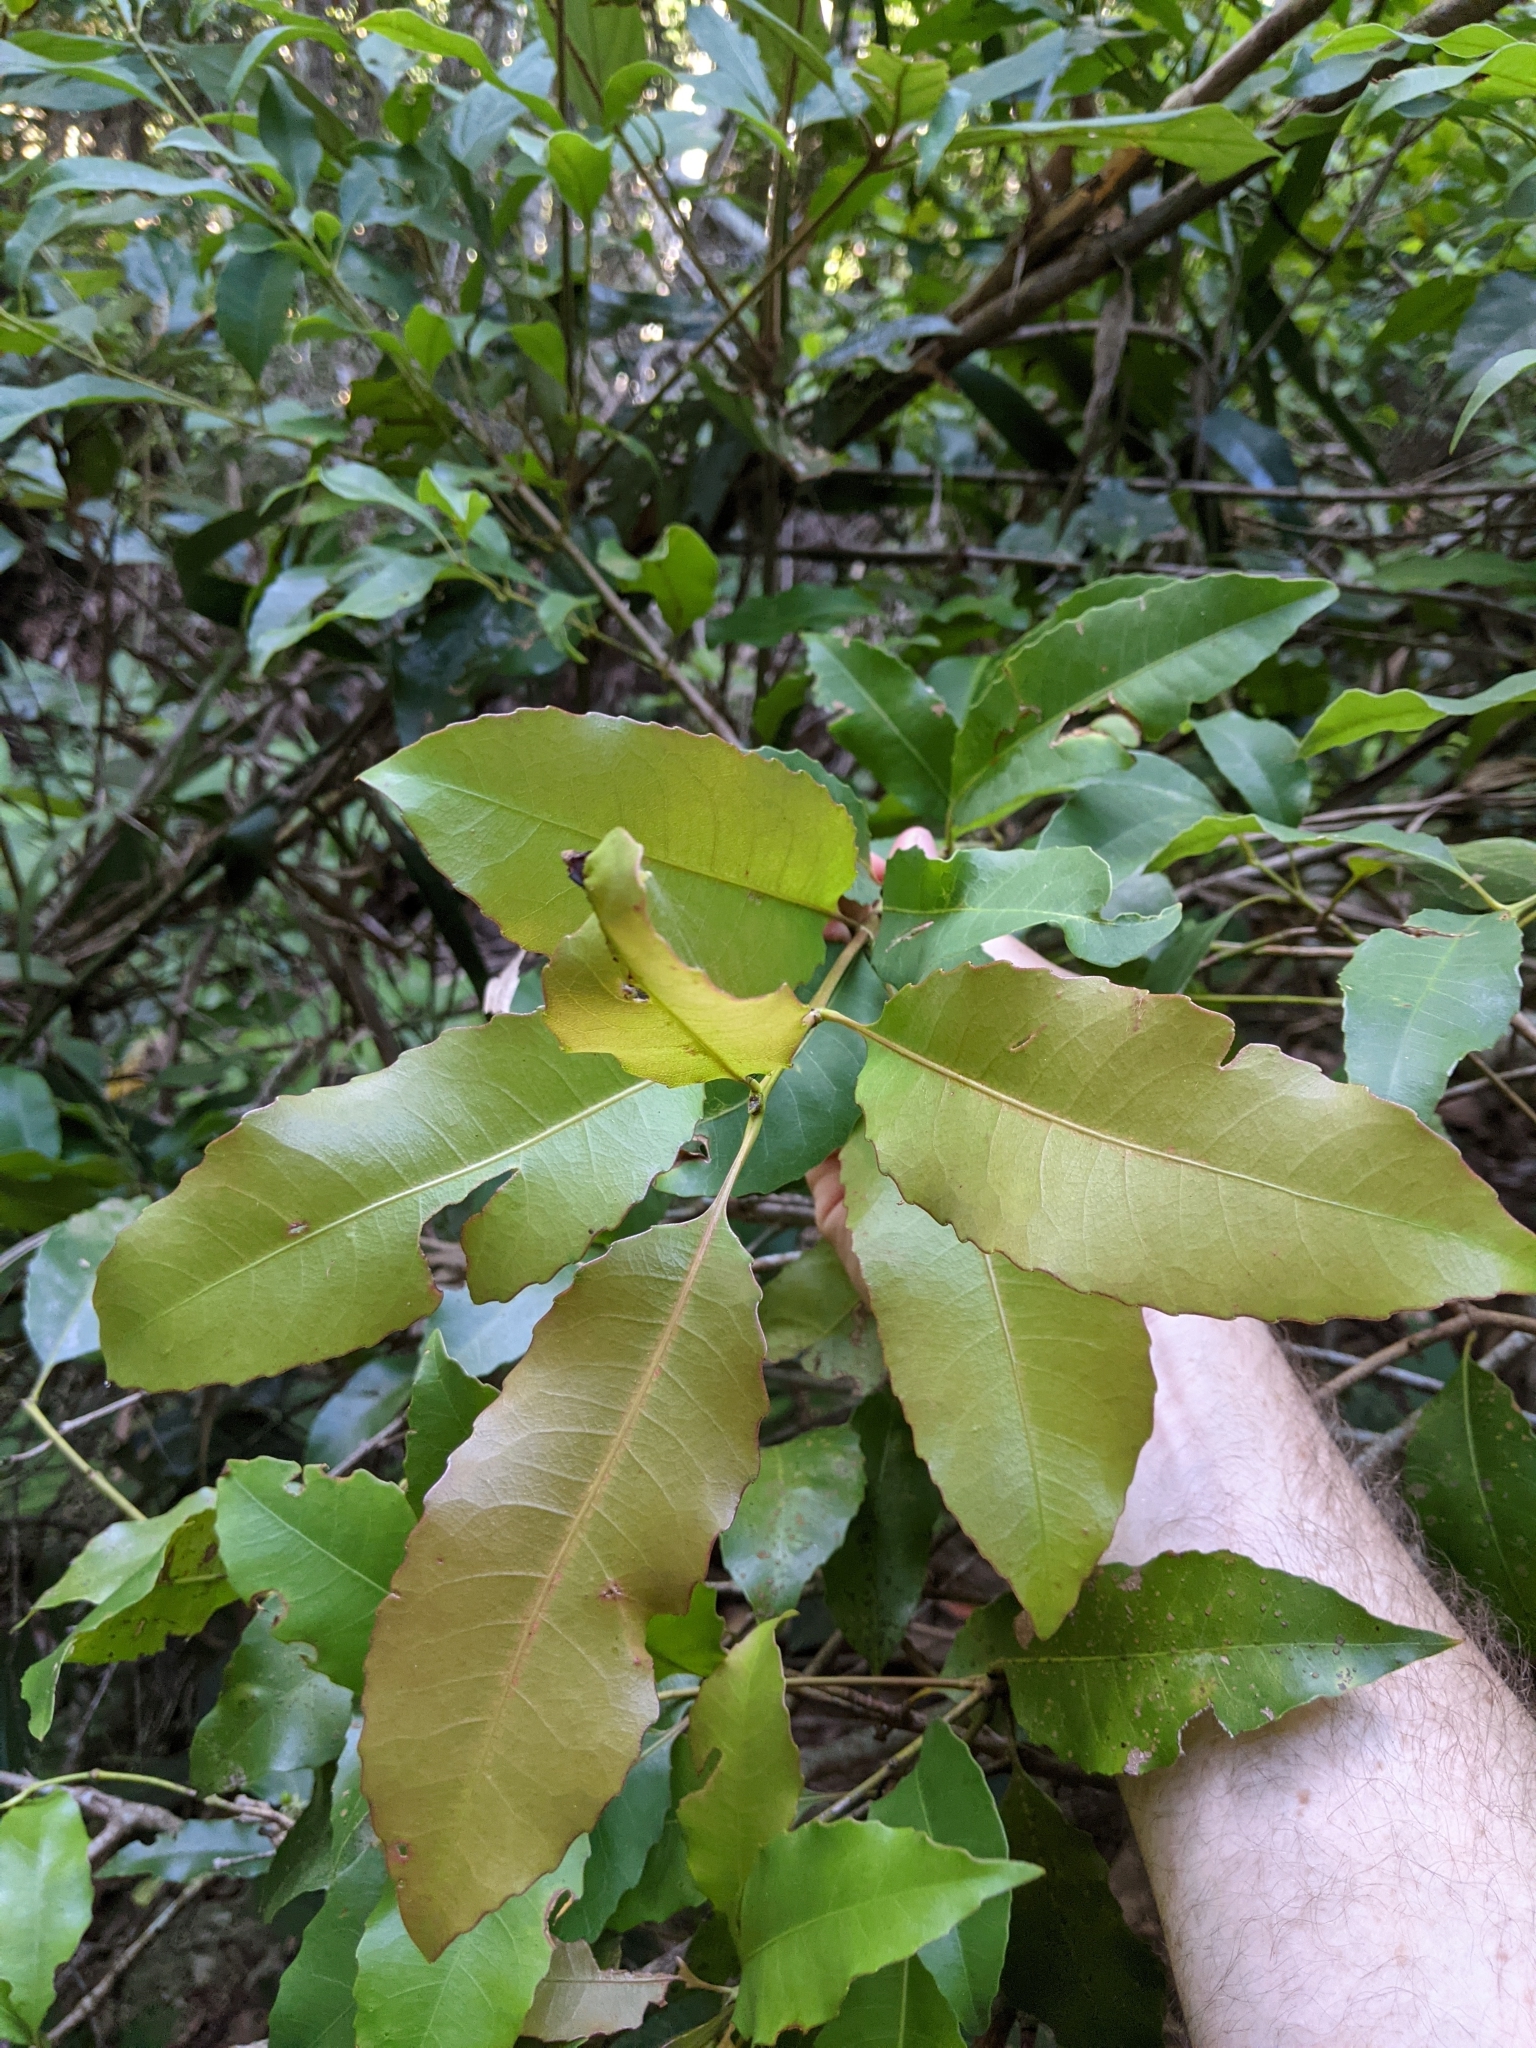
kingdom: Plantae
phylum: Tracheophyta
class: Magnoliopsida
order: Oxalidales
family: Cunoniaceae
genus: Schizomeria
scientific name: Schizomeria ovata
